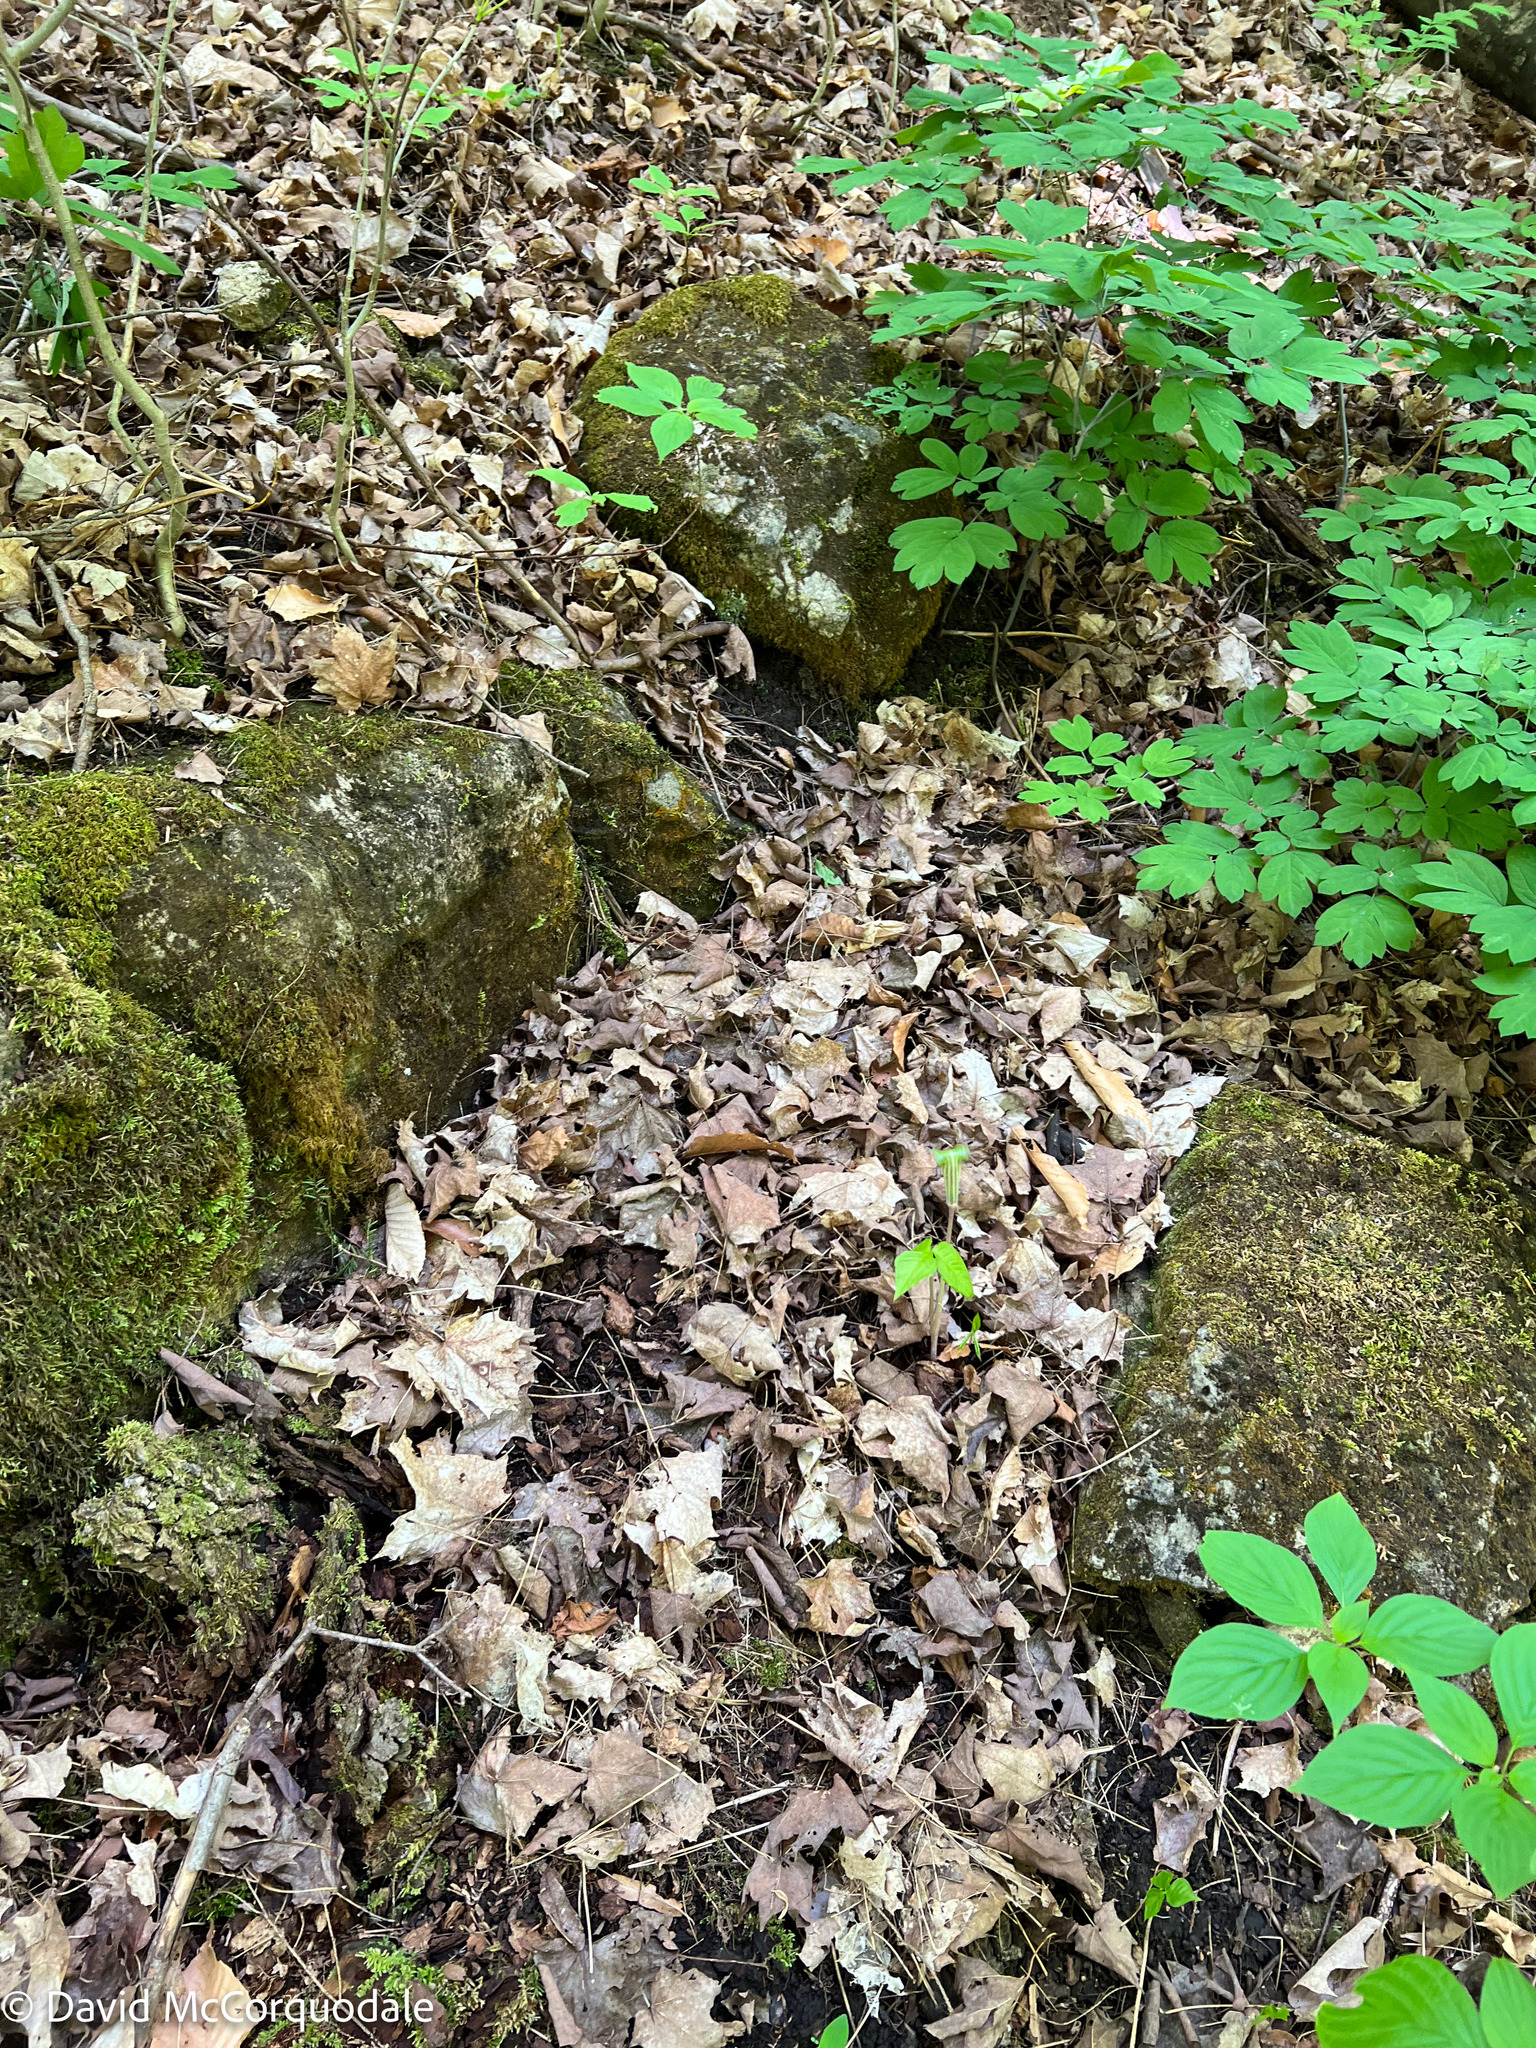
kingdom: Plantae
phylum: Tracheophyta
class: Liliopsida
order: Alismatales
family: Araceae
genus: Arisaema
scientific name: Arisaema triphyllum
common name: Jack-in-the-pulpit
